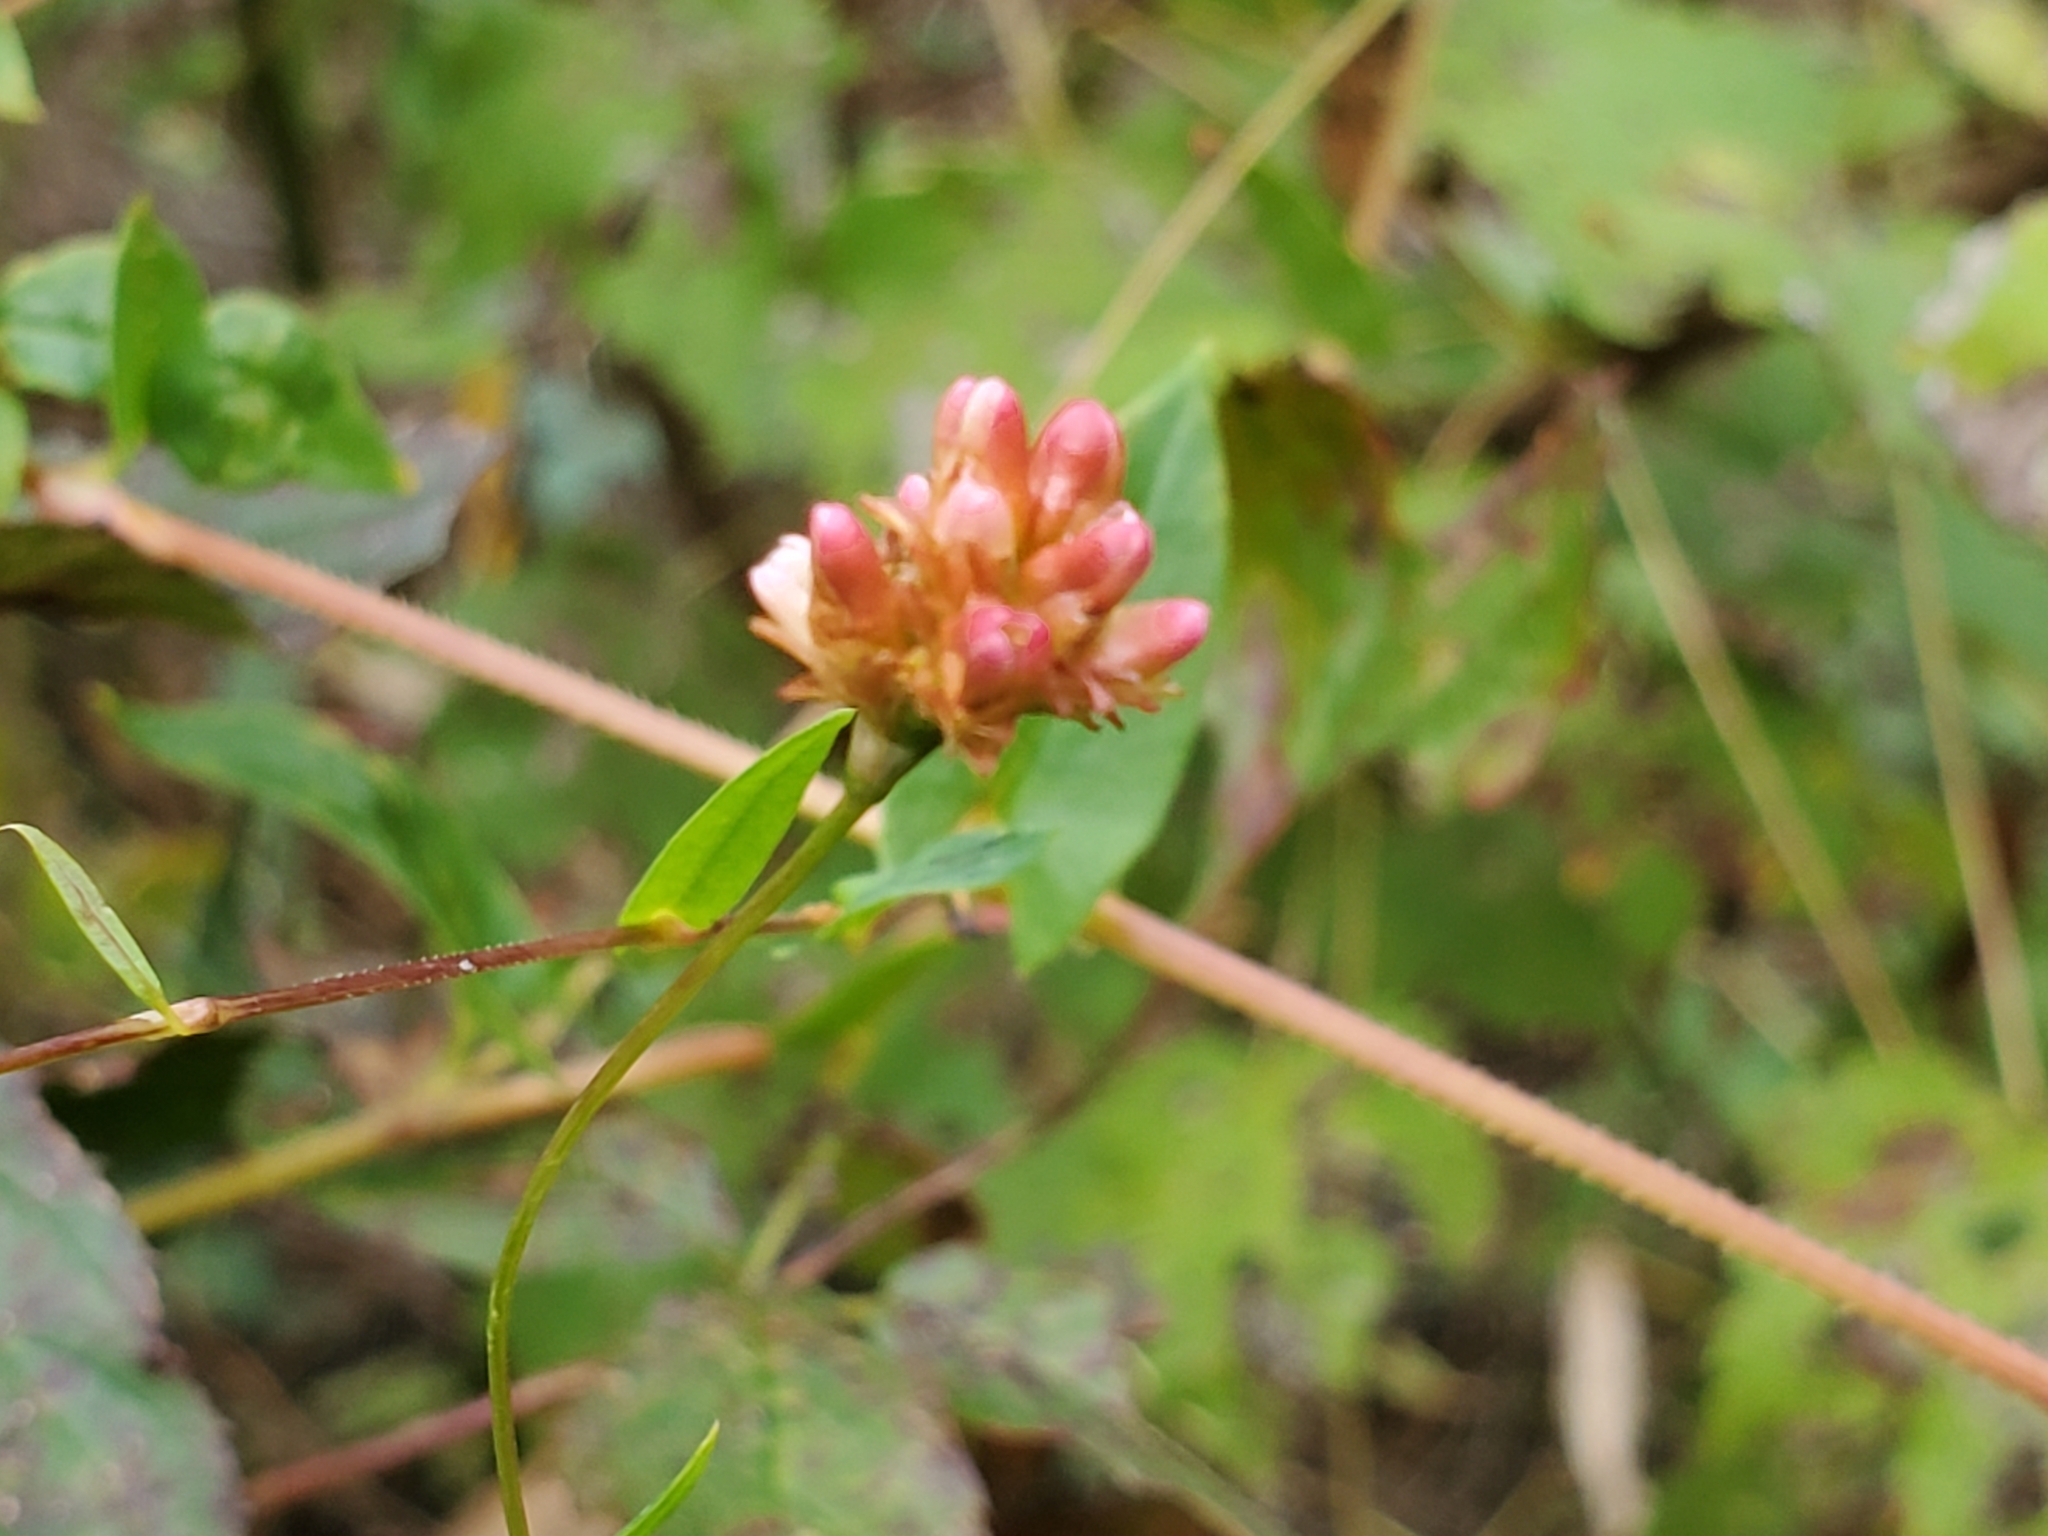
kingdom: Plantae
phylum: Tracheophyta
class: Magnoliopsida
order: Caryophyllales
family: Polygonaceae
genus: Persicaria
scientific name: Persicaria sagittata
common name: American tearthumb
